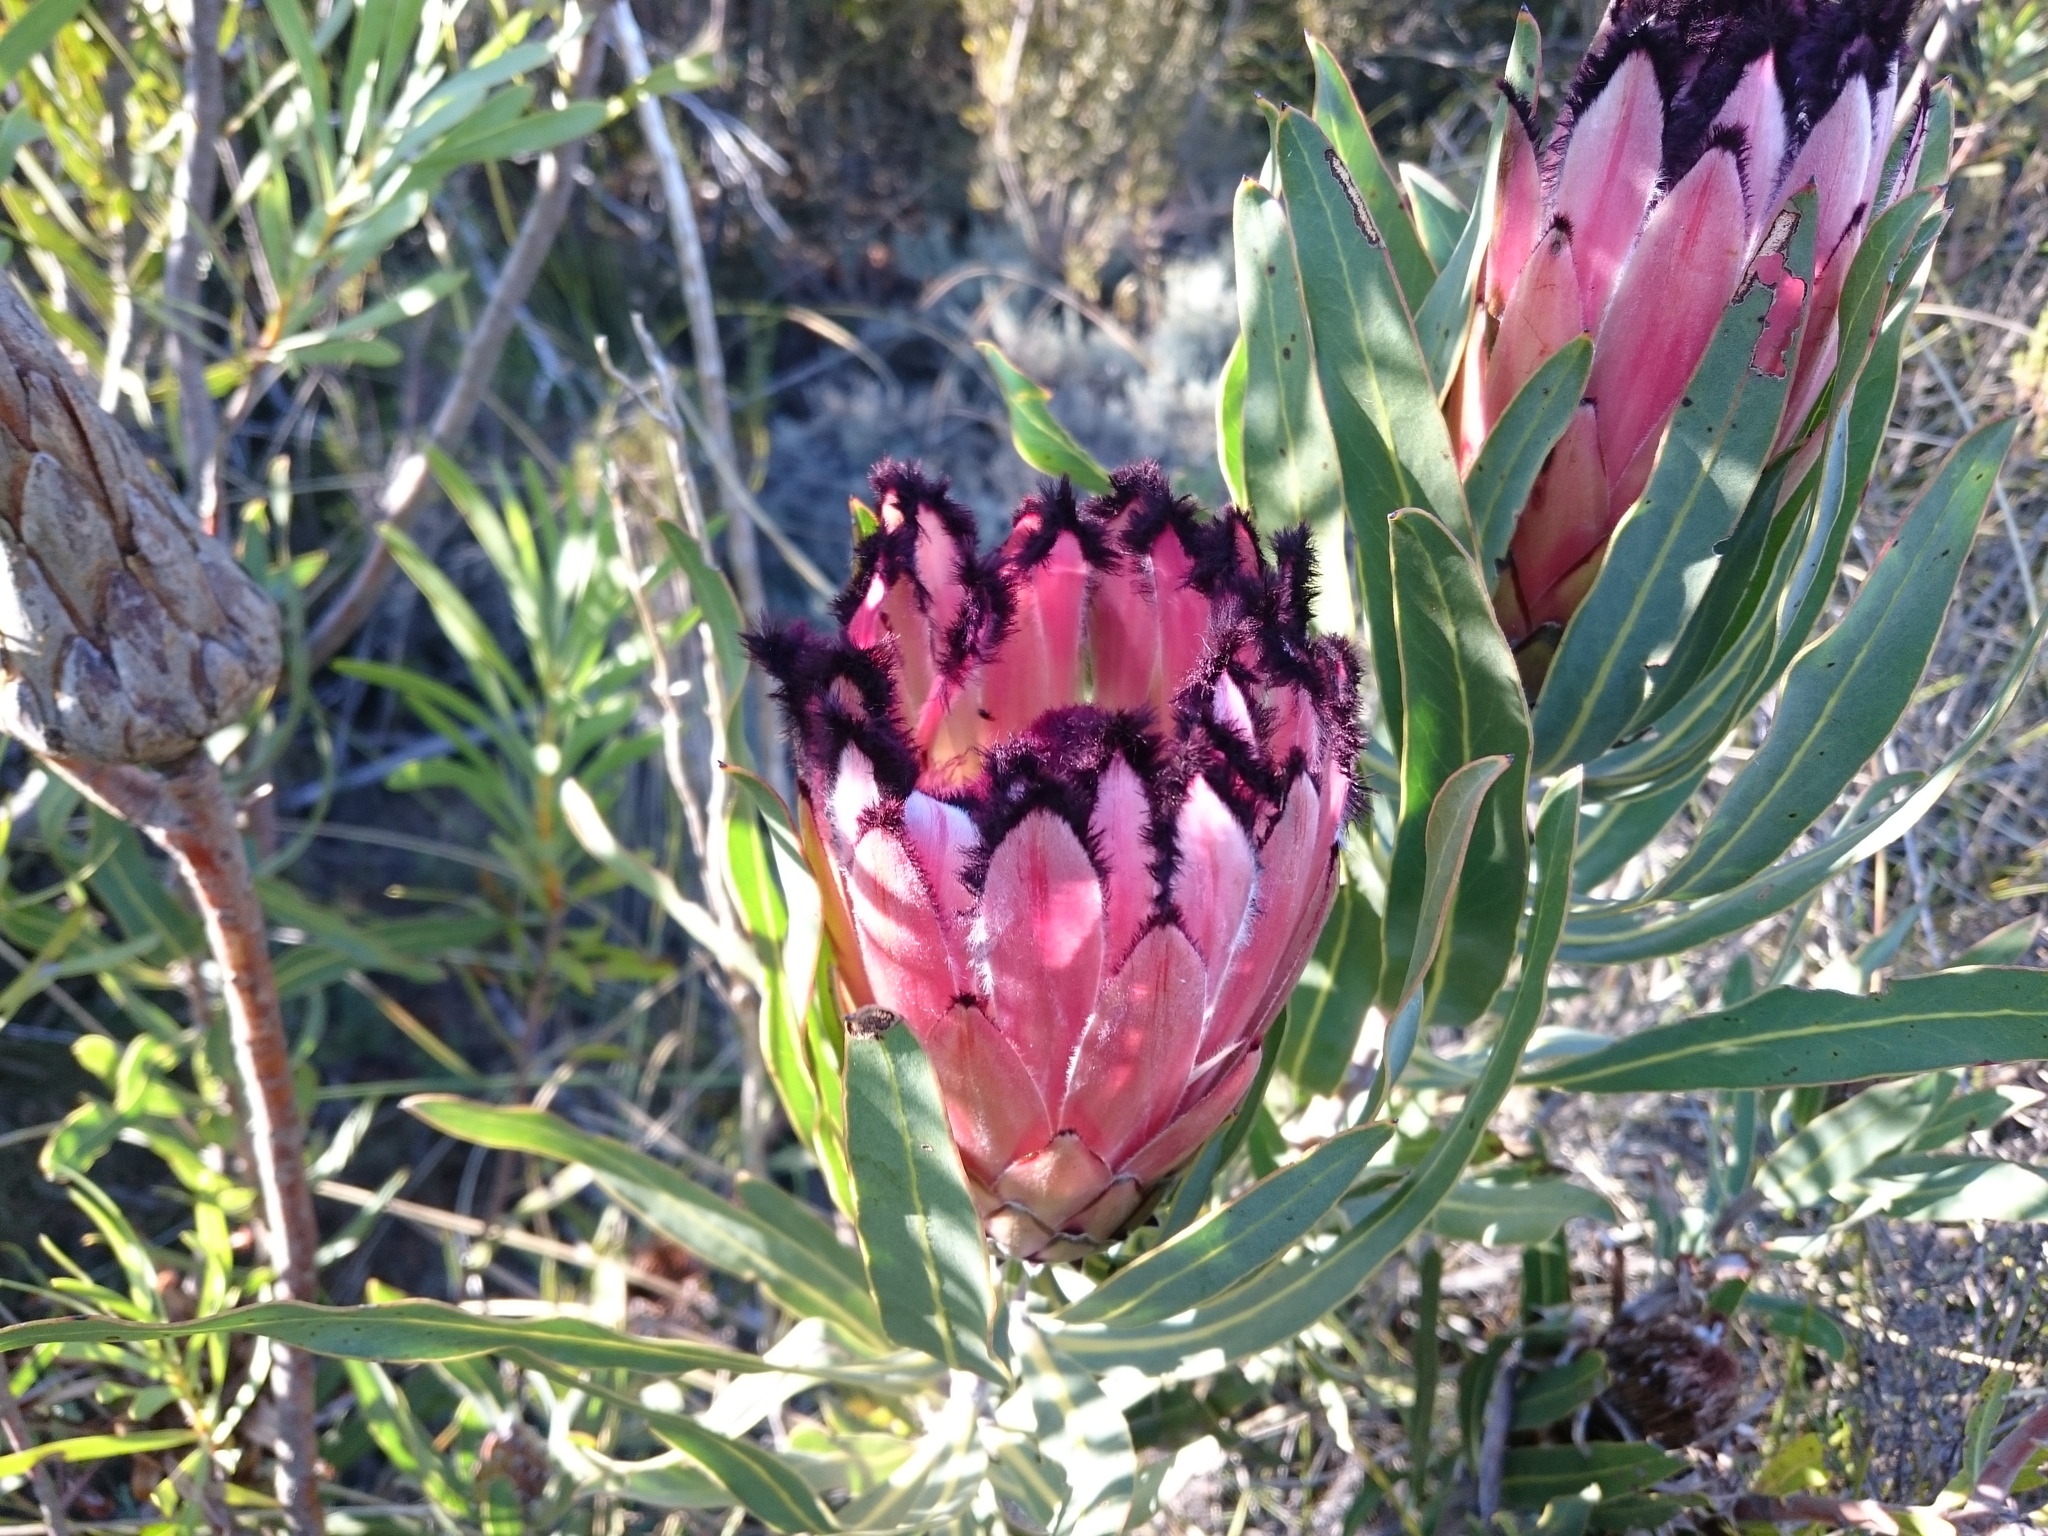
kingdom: Plantae
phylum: Tracheophyta
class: Magnoliopsida
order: Proteales
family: Proteaceae
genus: Protea
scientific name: Protea burchellii
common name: Burchell's sugarbush
